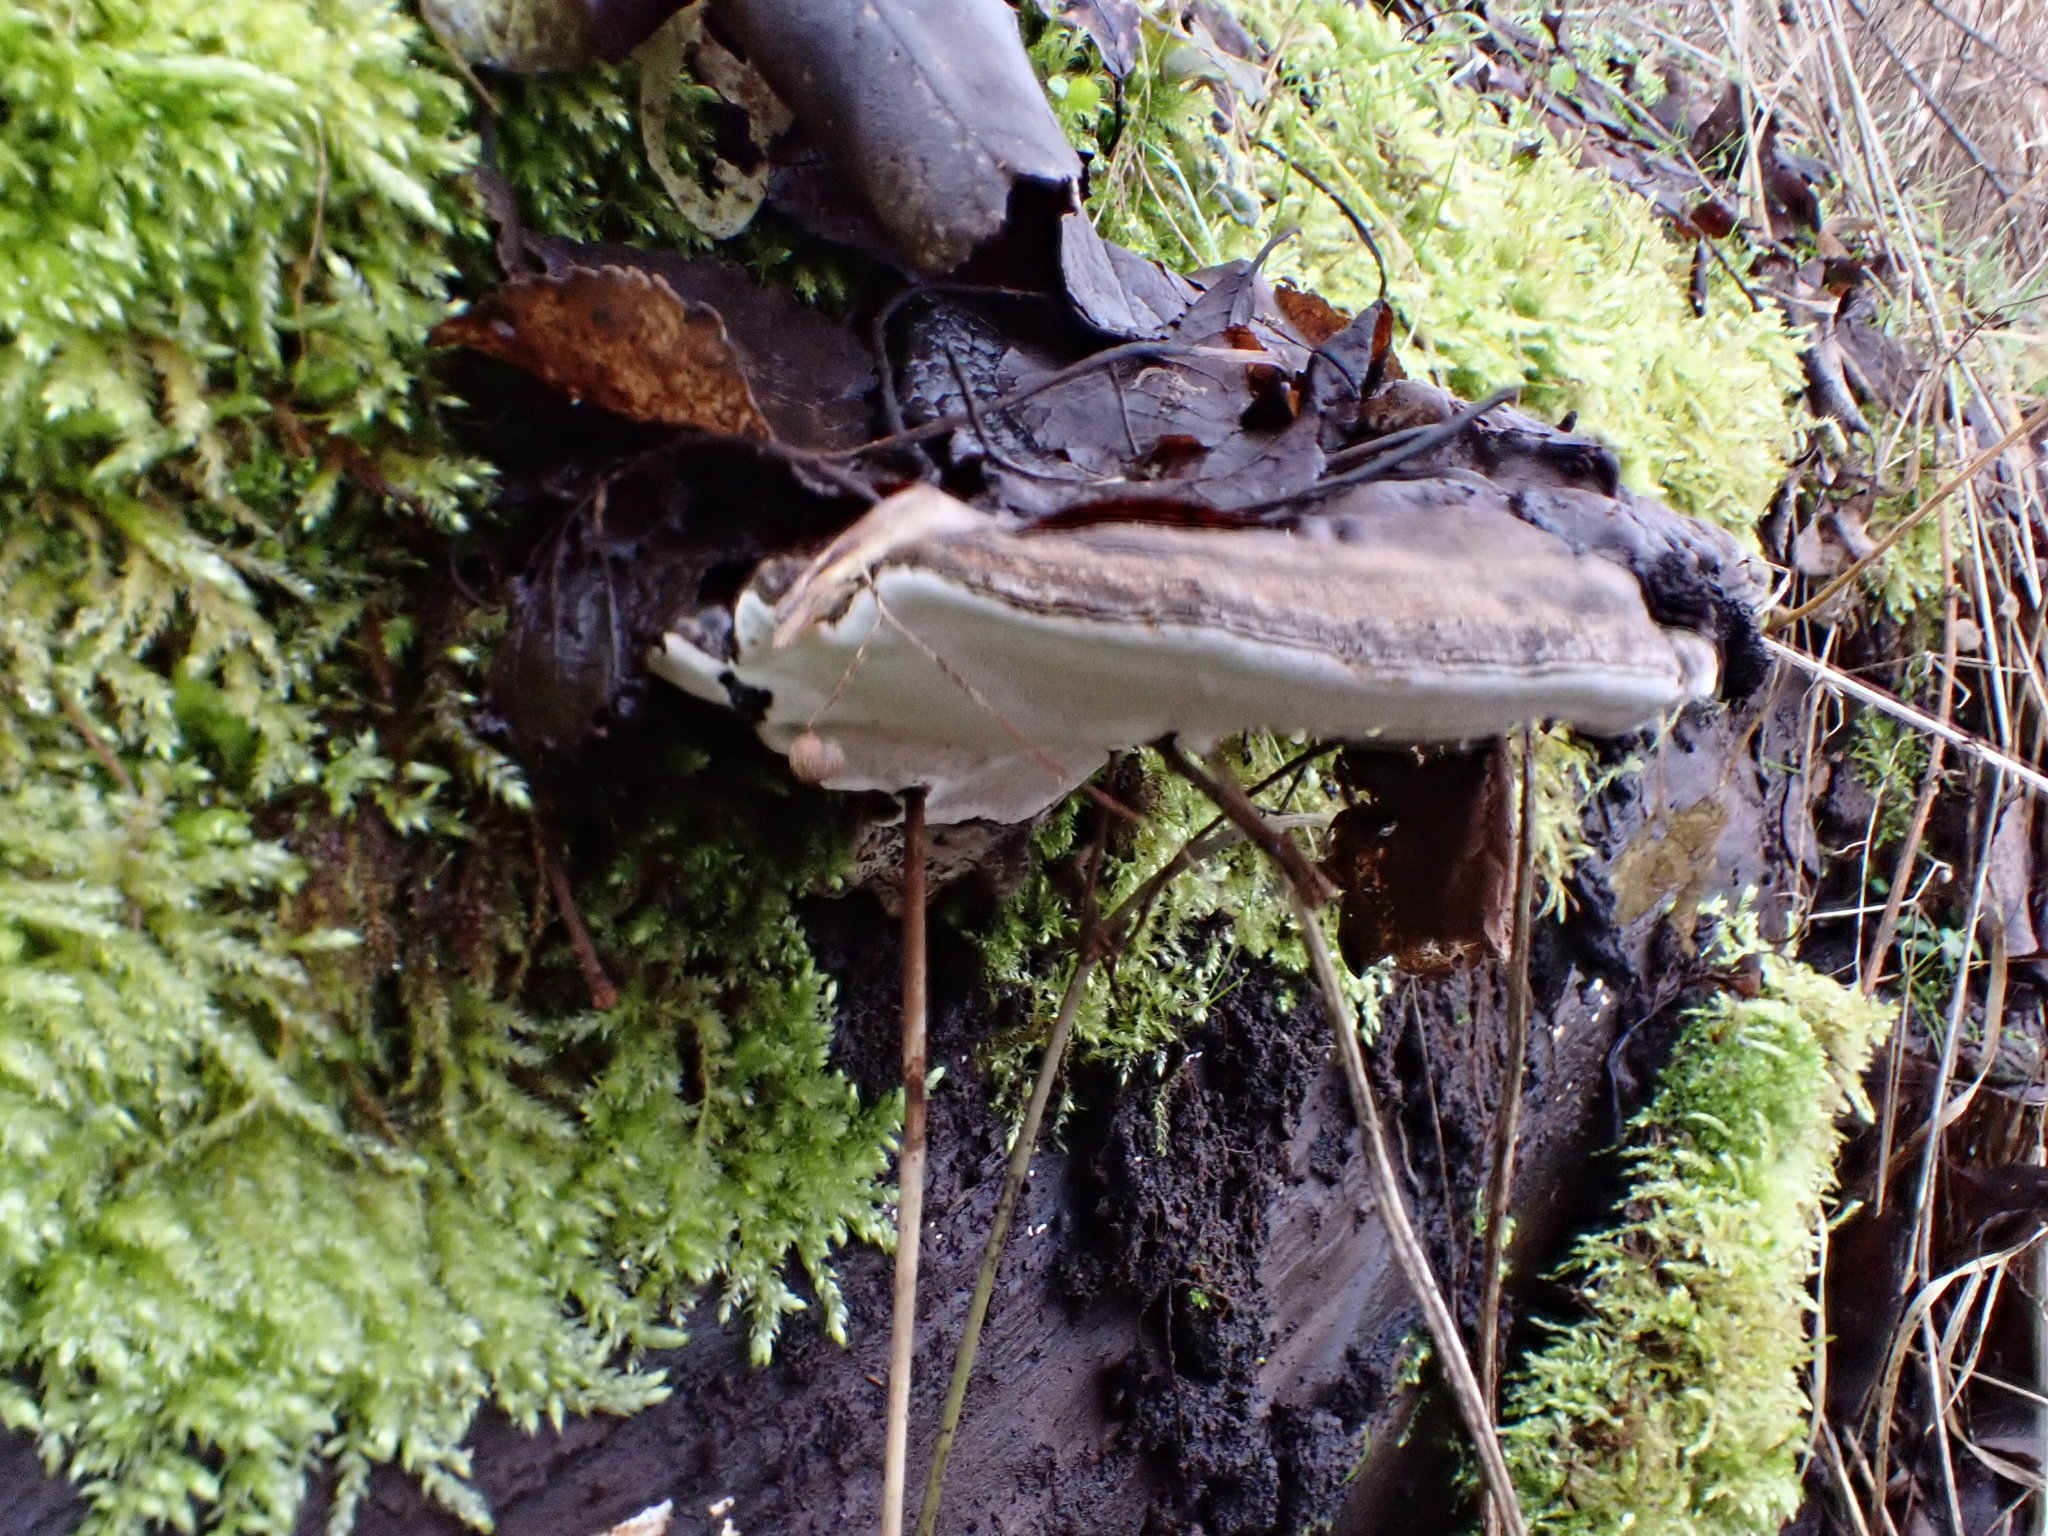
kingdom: Fungi
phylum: Basidiomycota
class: Agaricomycetes
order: Polyporales
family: Polyporaceae
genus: Ganoderma
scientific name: Ganoderma applanatum
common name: Artist's bracket
